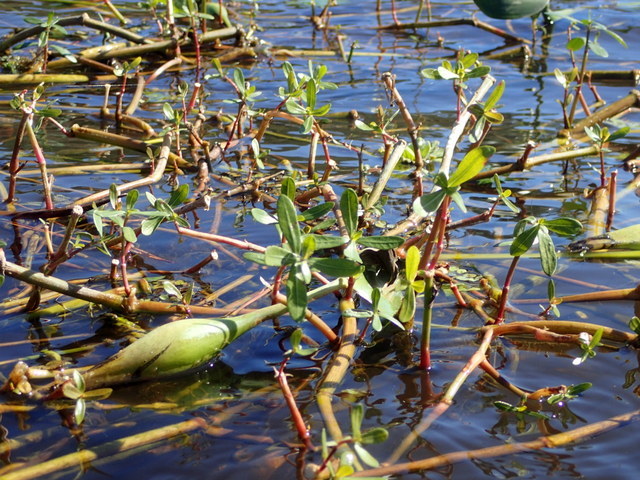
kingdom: Plantae
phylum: Tracheophyta
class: Magnoliopsida
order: Caryophyllales
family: Amaranthaceae
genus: Alternanthera
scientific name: Alternanthera philoxeroides
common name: Alligatorweed
